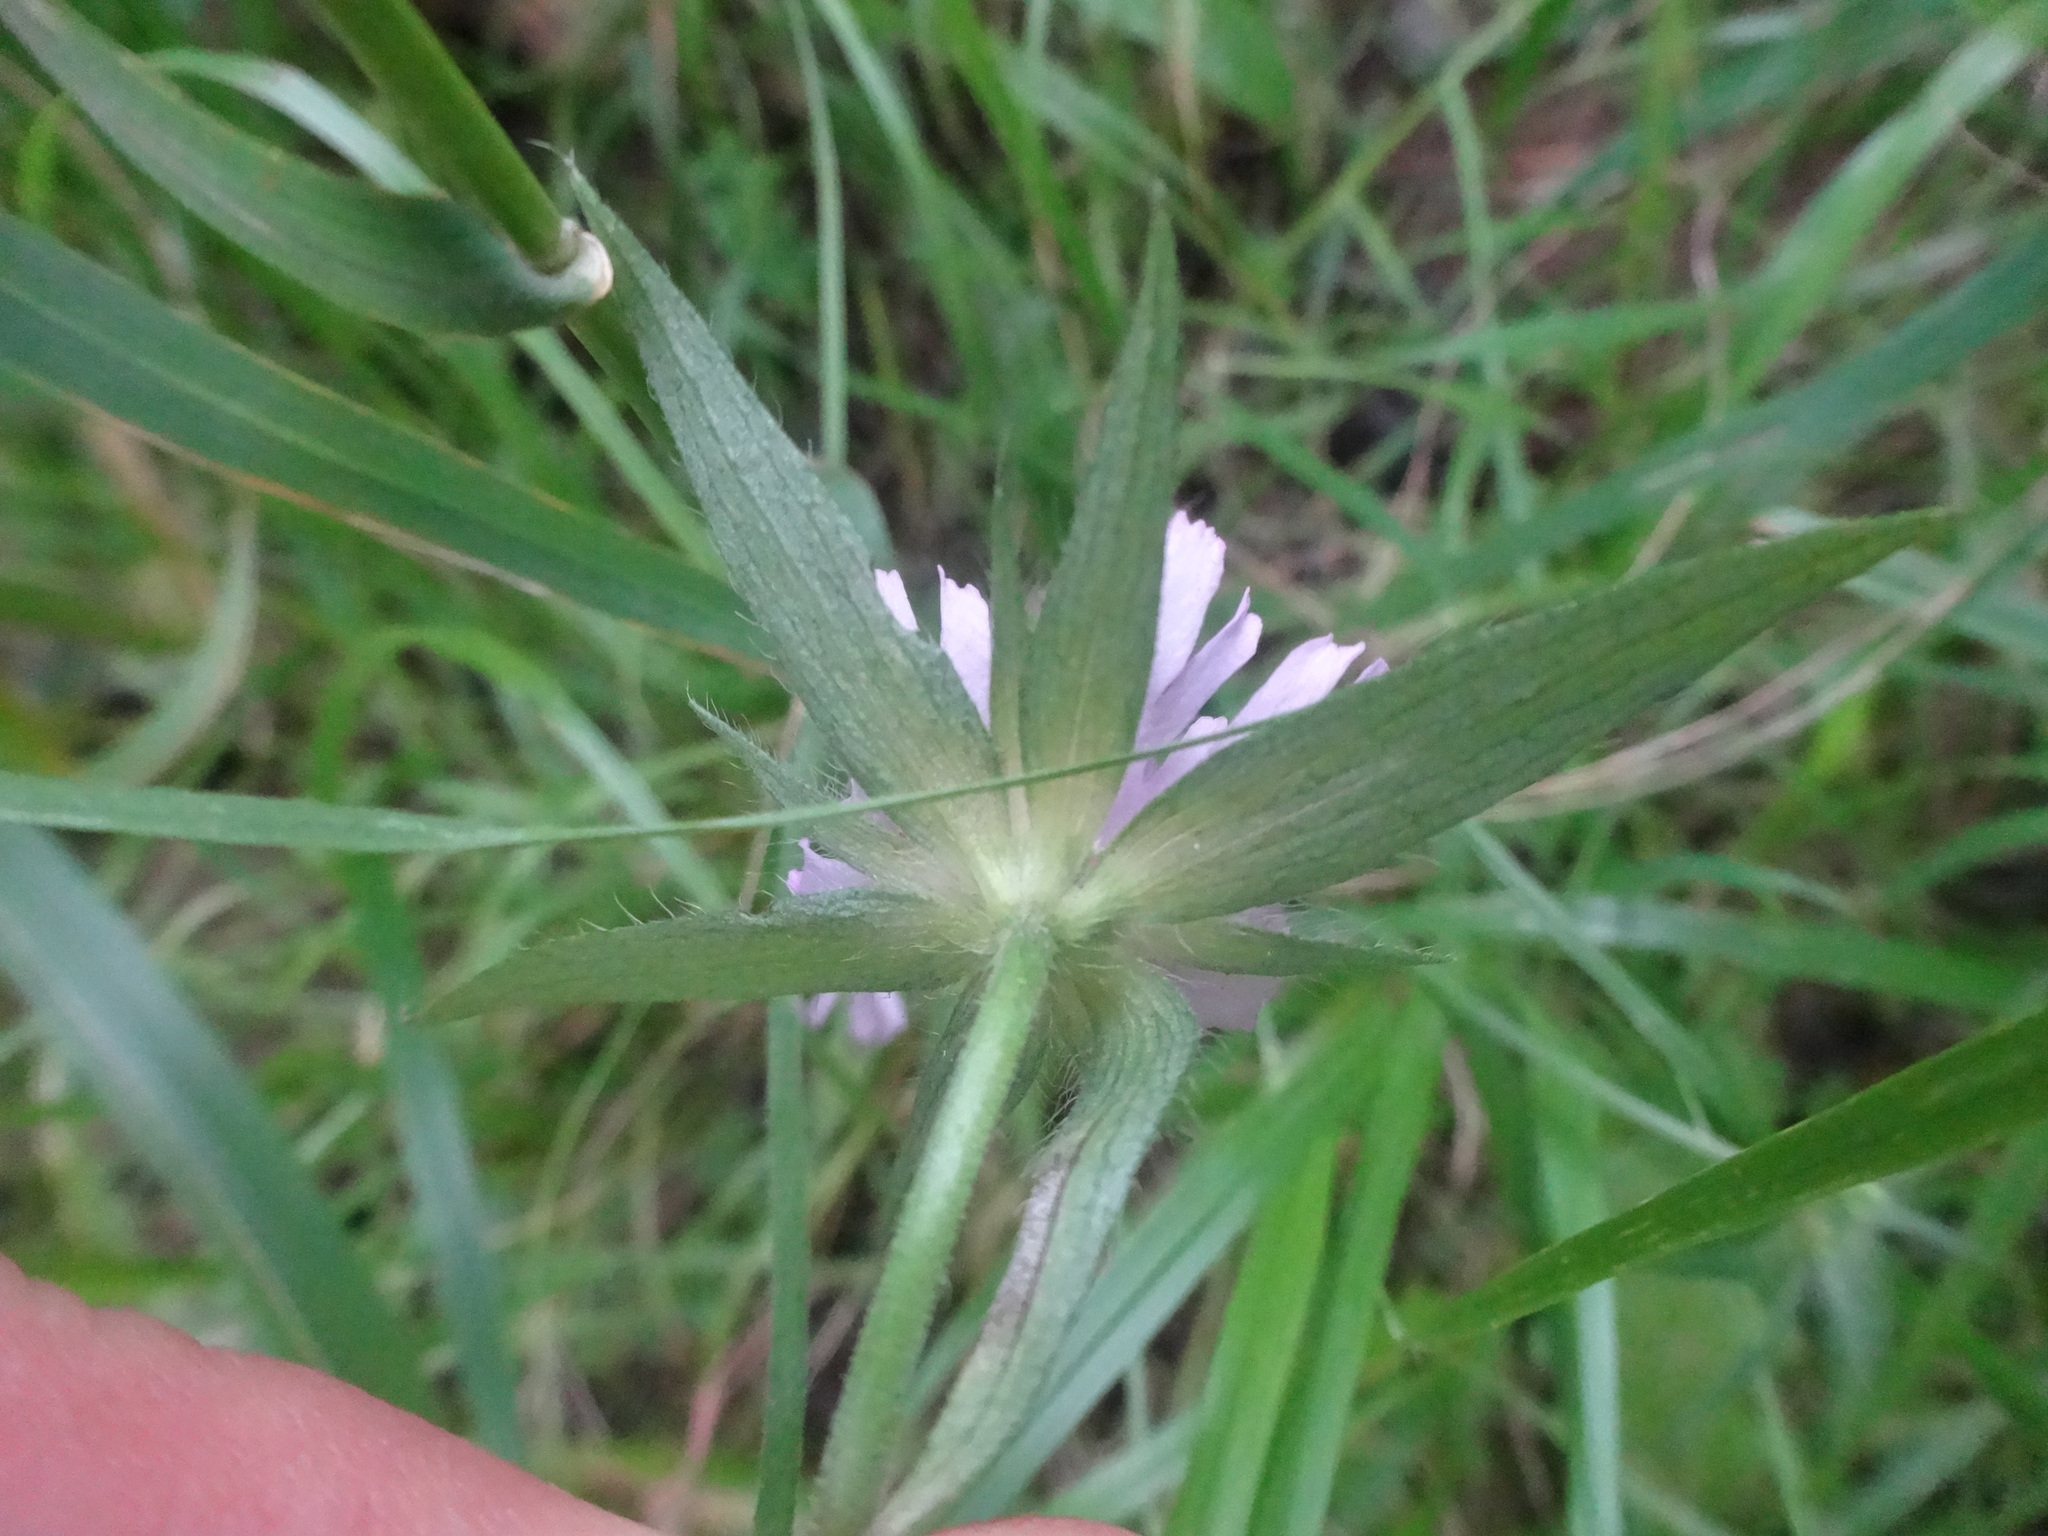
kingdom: Plantae
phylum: Tracheophyta
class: Magnoliopsida
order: Dipsacales
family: Caprifoliaceae
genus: Knautia
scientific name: Knautia arvensis
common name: Field scabiosa
